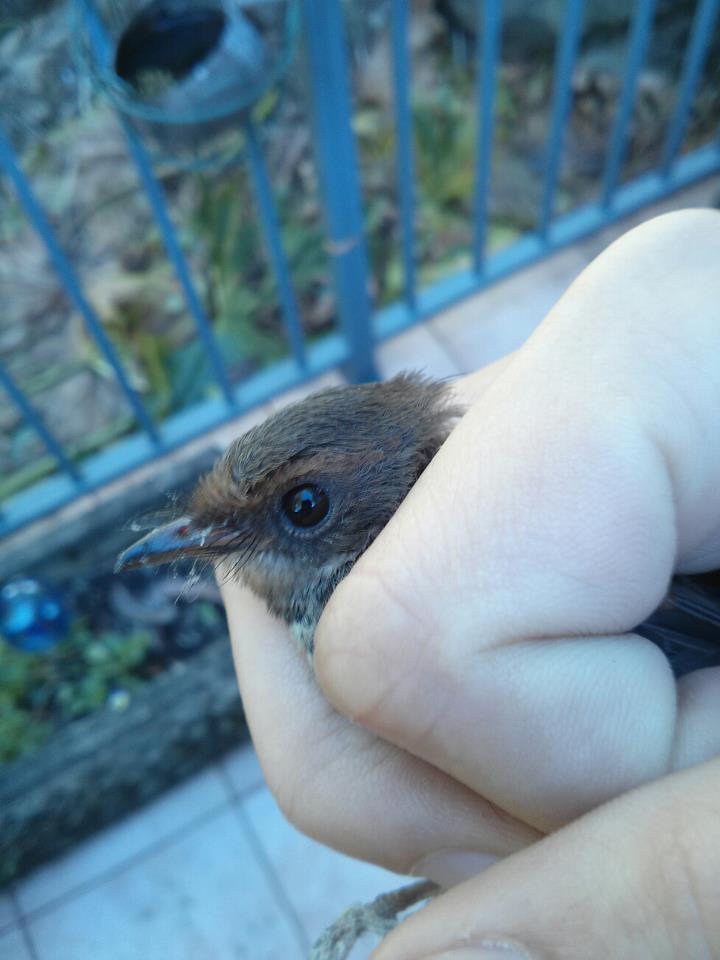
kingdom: Animalia
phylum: Chordata
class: Aves
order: Passeriformes
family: Rhipiduridae
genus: Rhipidura
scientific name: Rhipidura rufifrons
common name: Rufous fantail
